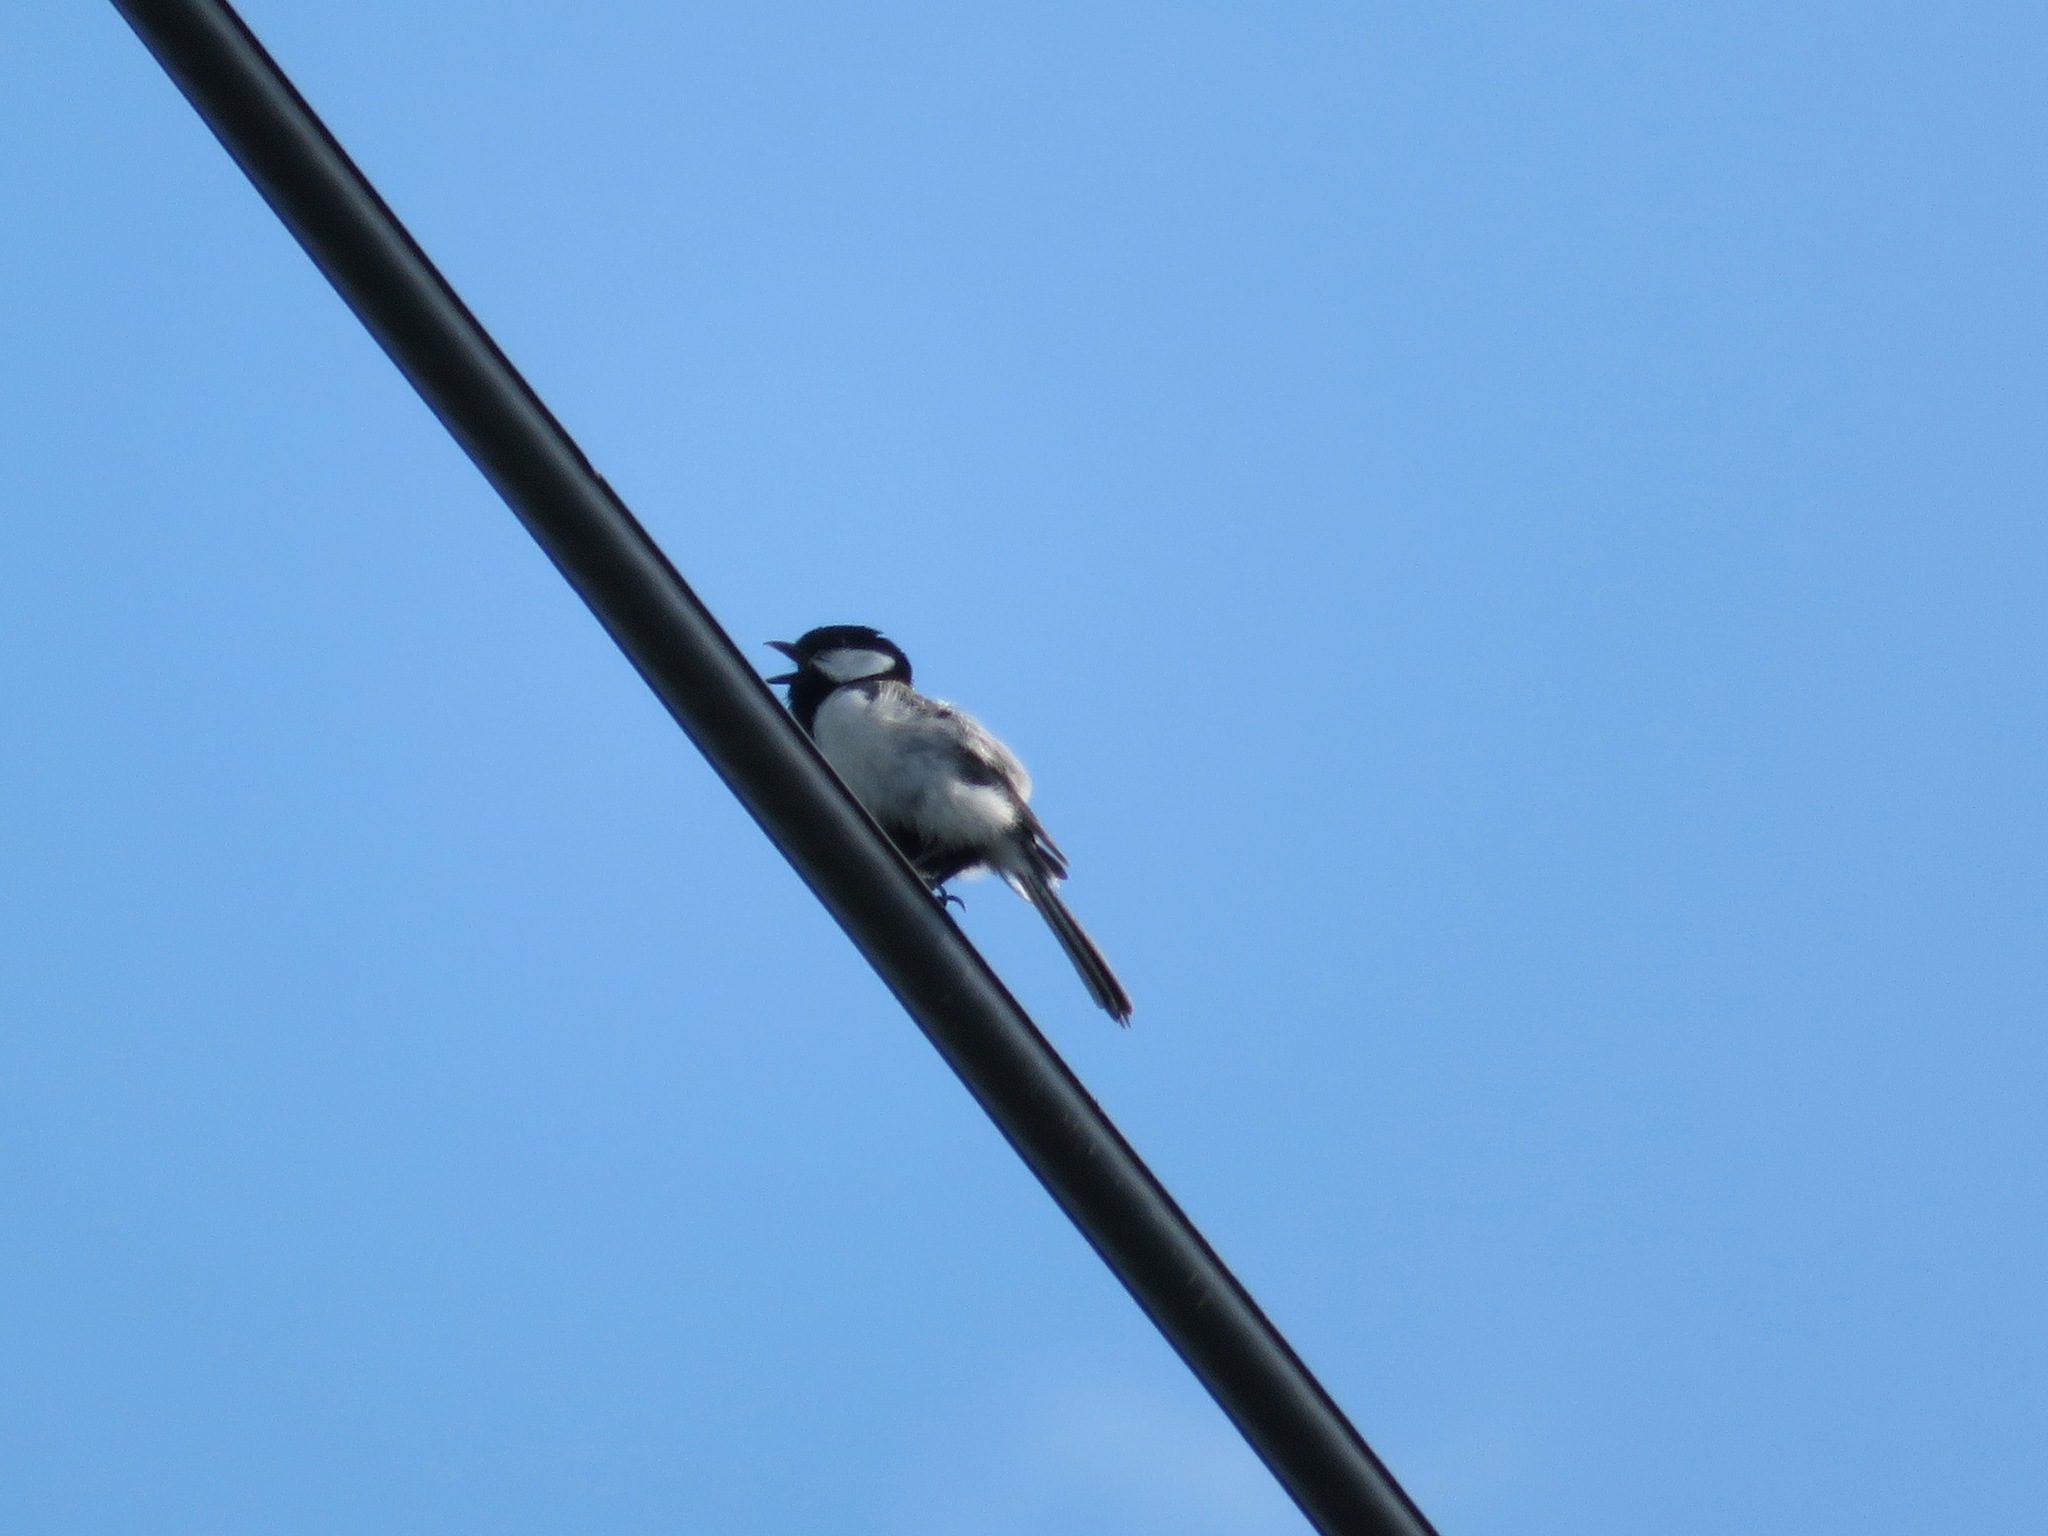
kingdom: Animalia
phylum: Chordata
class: Aves
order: Passeriformes
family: Paridae
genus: Parus
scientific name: Parus minor
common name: Japanese tit
